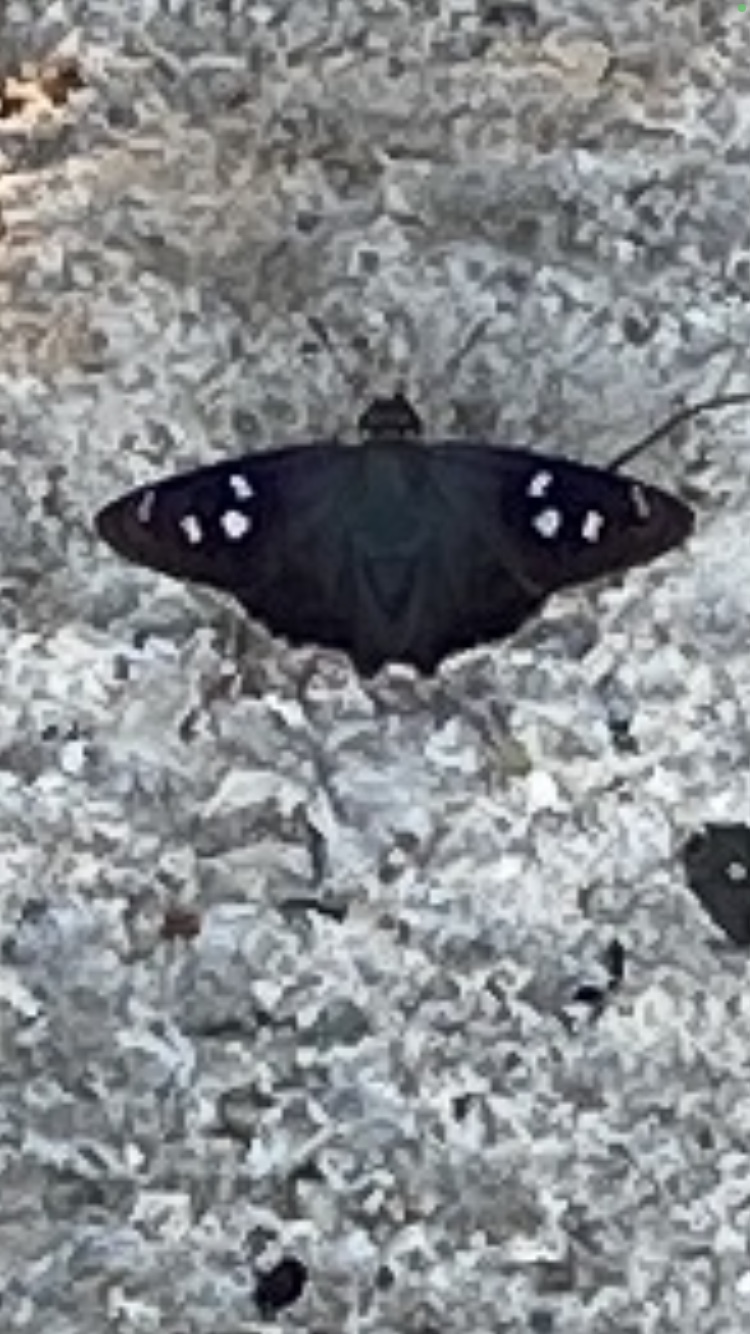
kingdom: Animalia
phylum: Arthropoda
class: Insecta
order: Lepidoptera
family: Hesperiidae
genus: Polygonus
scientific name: Polygonus leo
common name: Hammoch skipper
